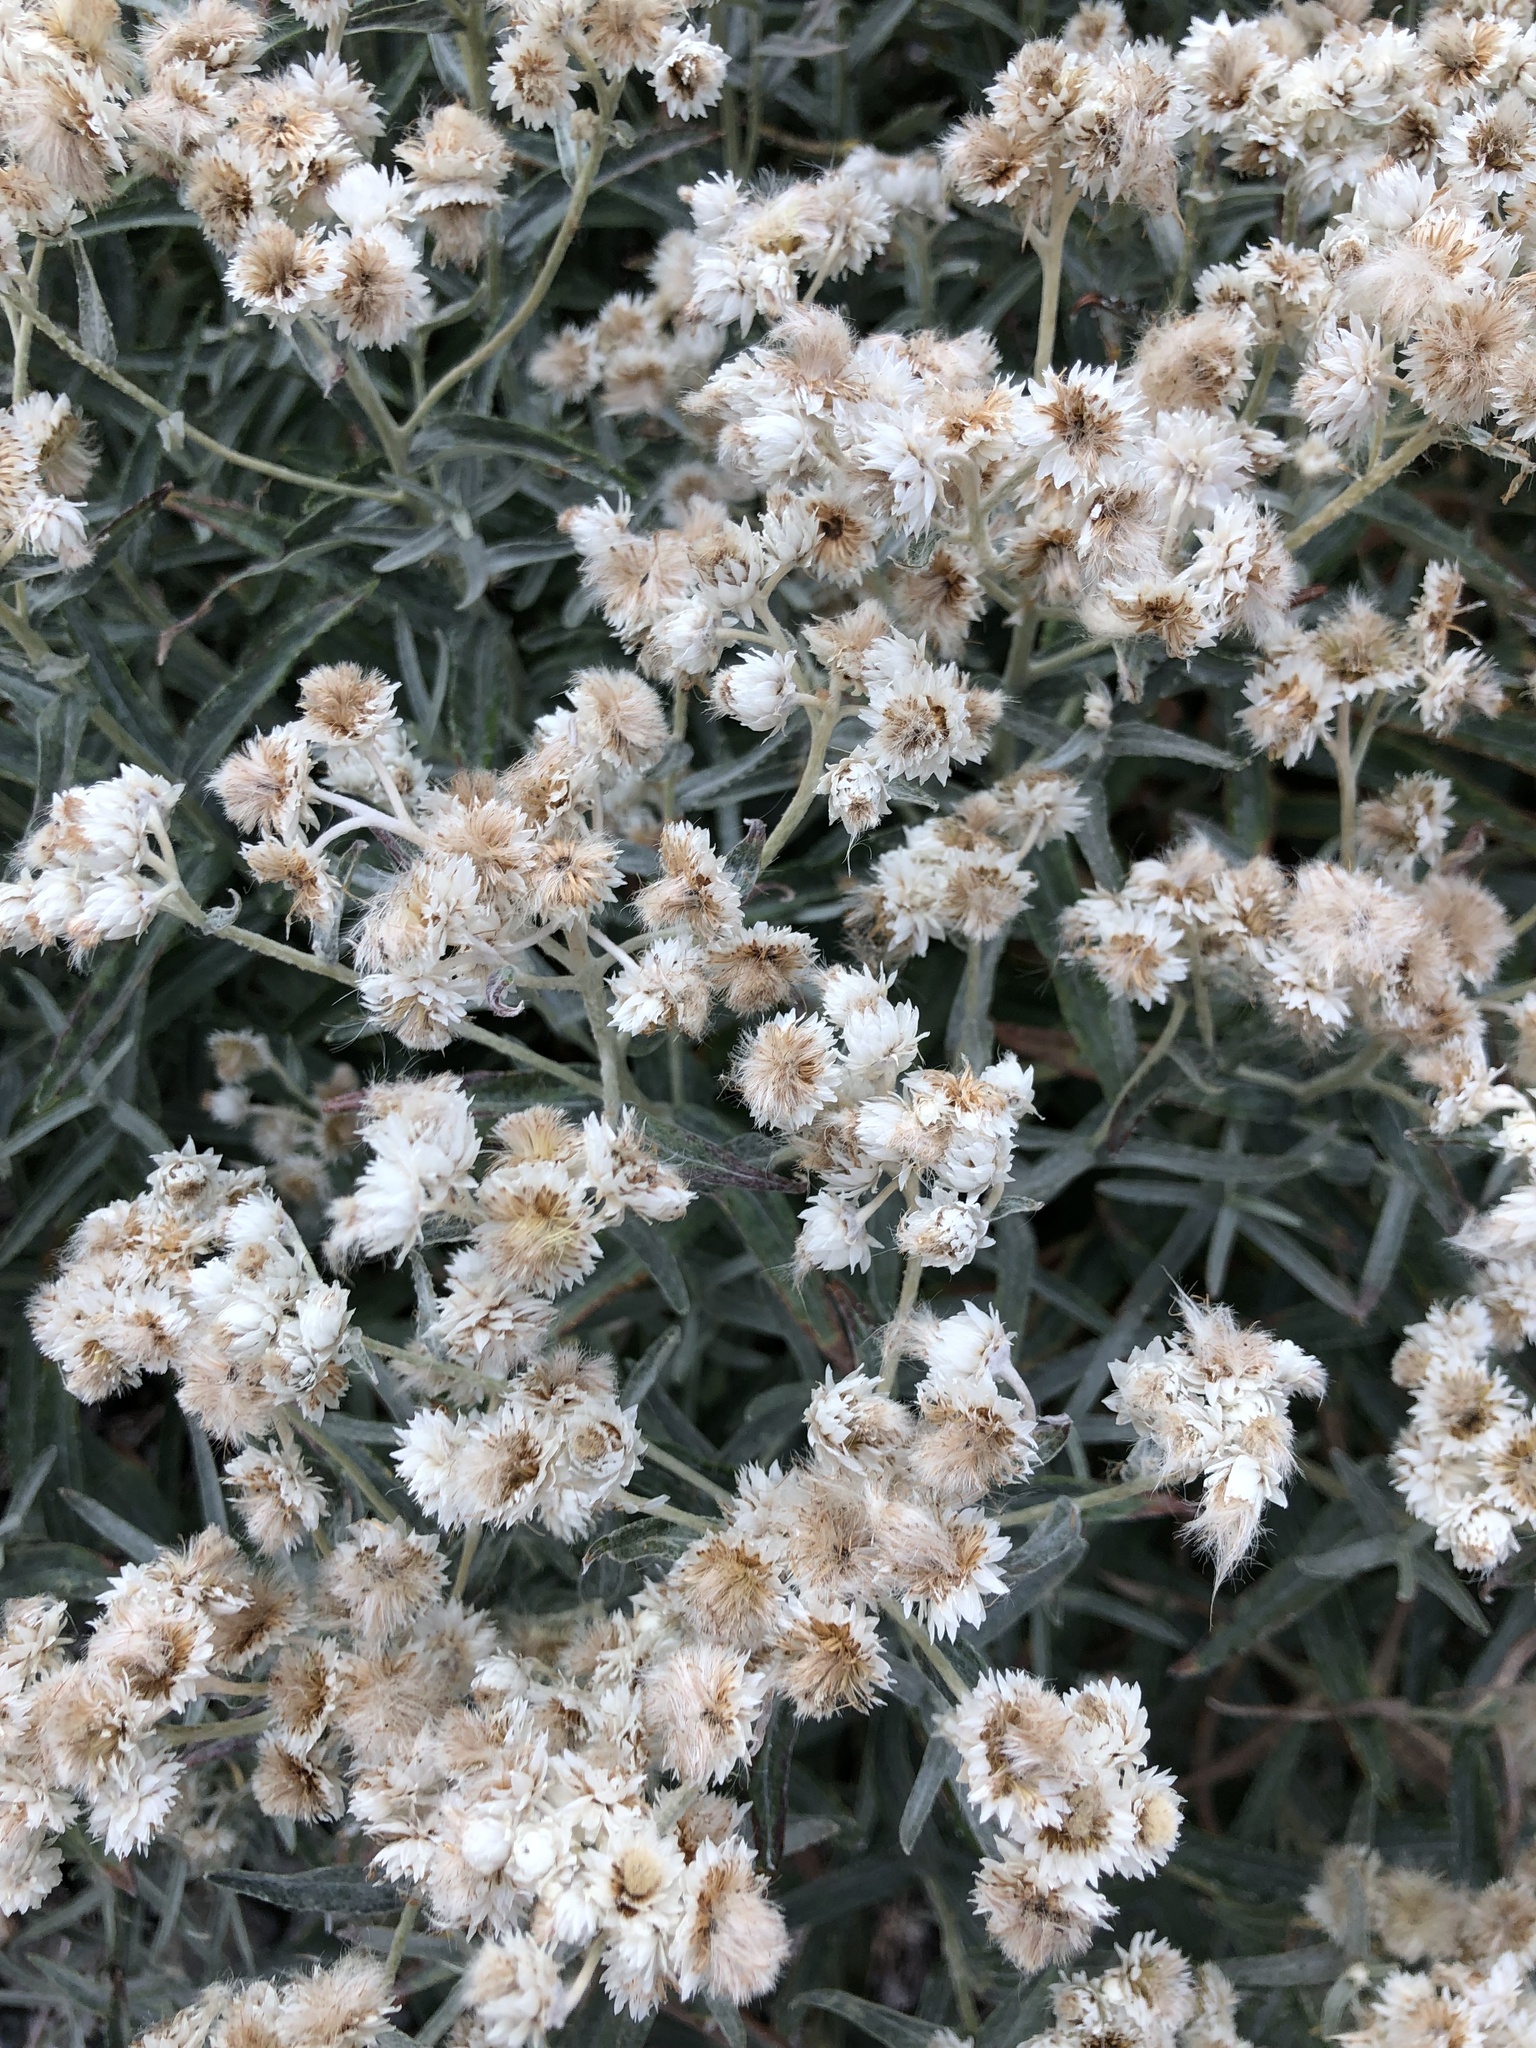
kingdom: Plantae
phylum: Tracheophyta
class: Magnoliopsida
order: Asterales
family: Asteraceae
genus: Anaphalis
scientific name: Anaphalis margaritacea
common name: Pearly everlasting
